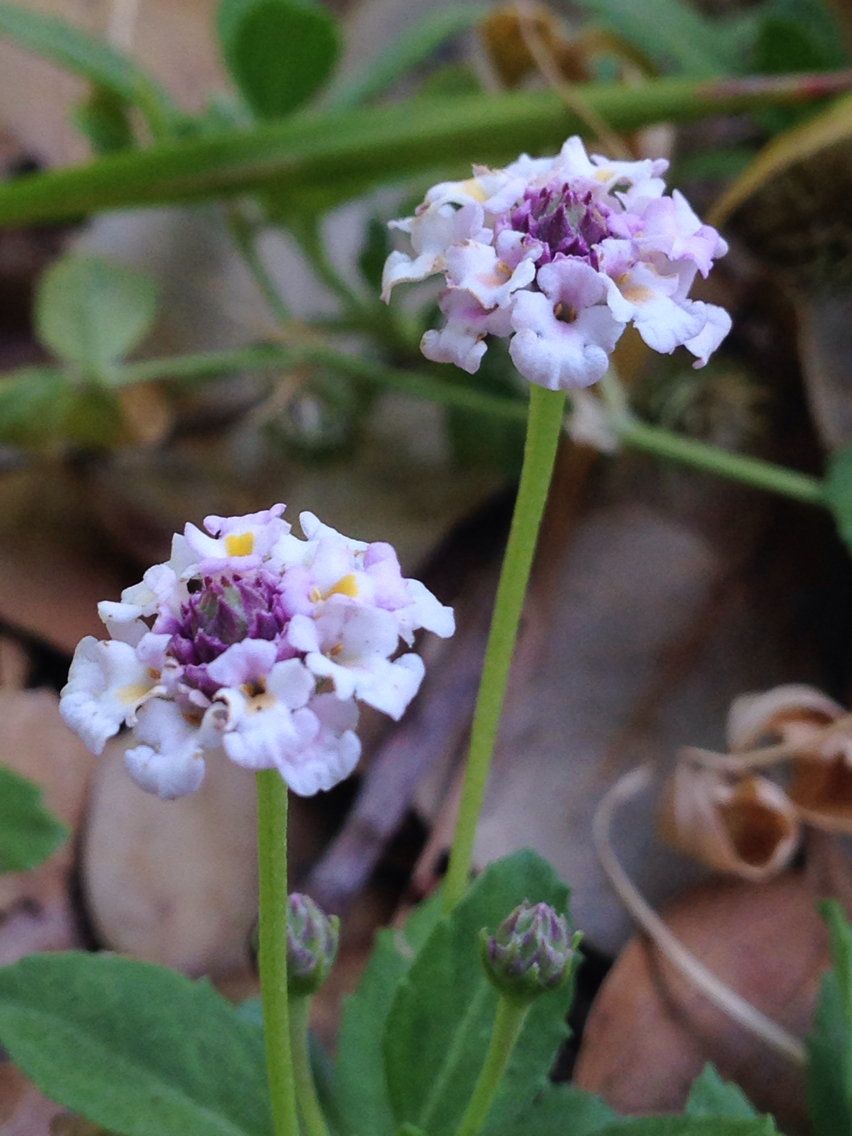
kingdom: Plantae
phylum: Tracheophyta
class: Magnoliopsida
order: Lamiales
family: Verbenaceae
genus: Phyla
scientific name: Phyla nodiflora
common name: Frogfruit
